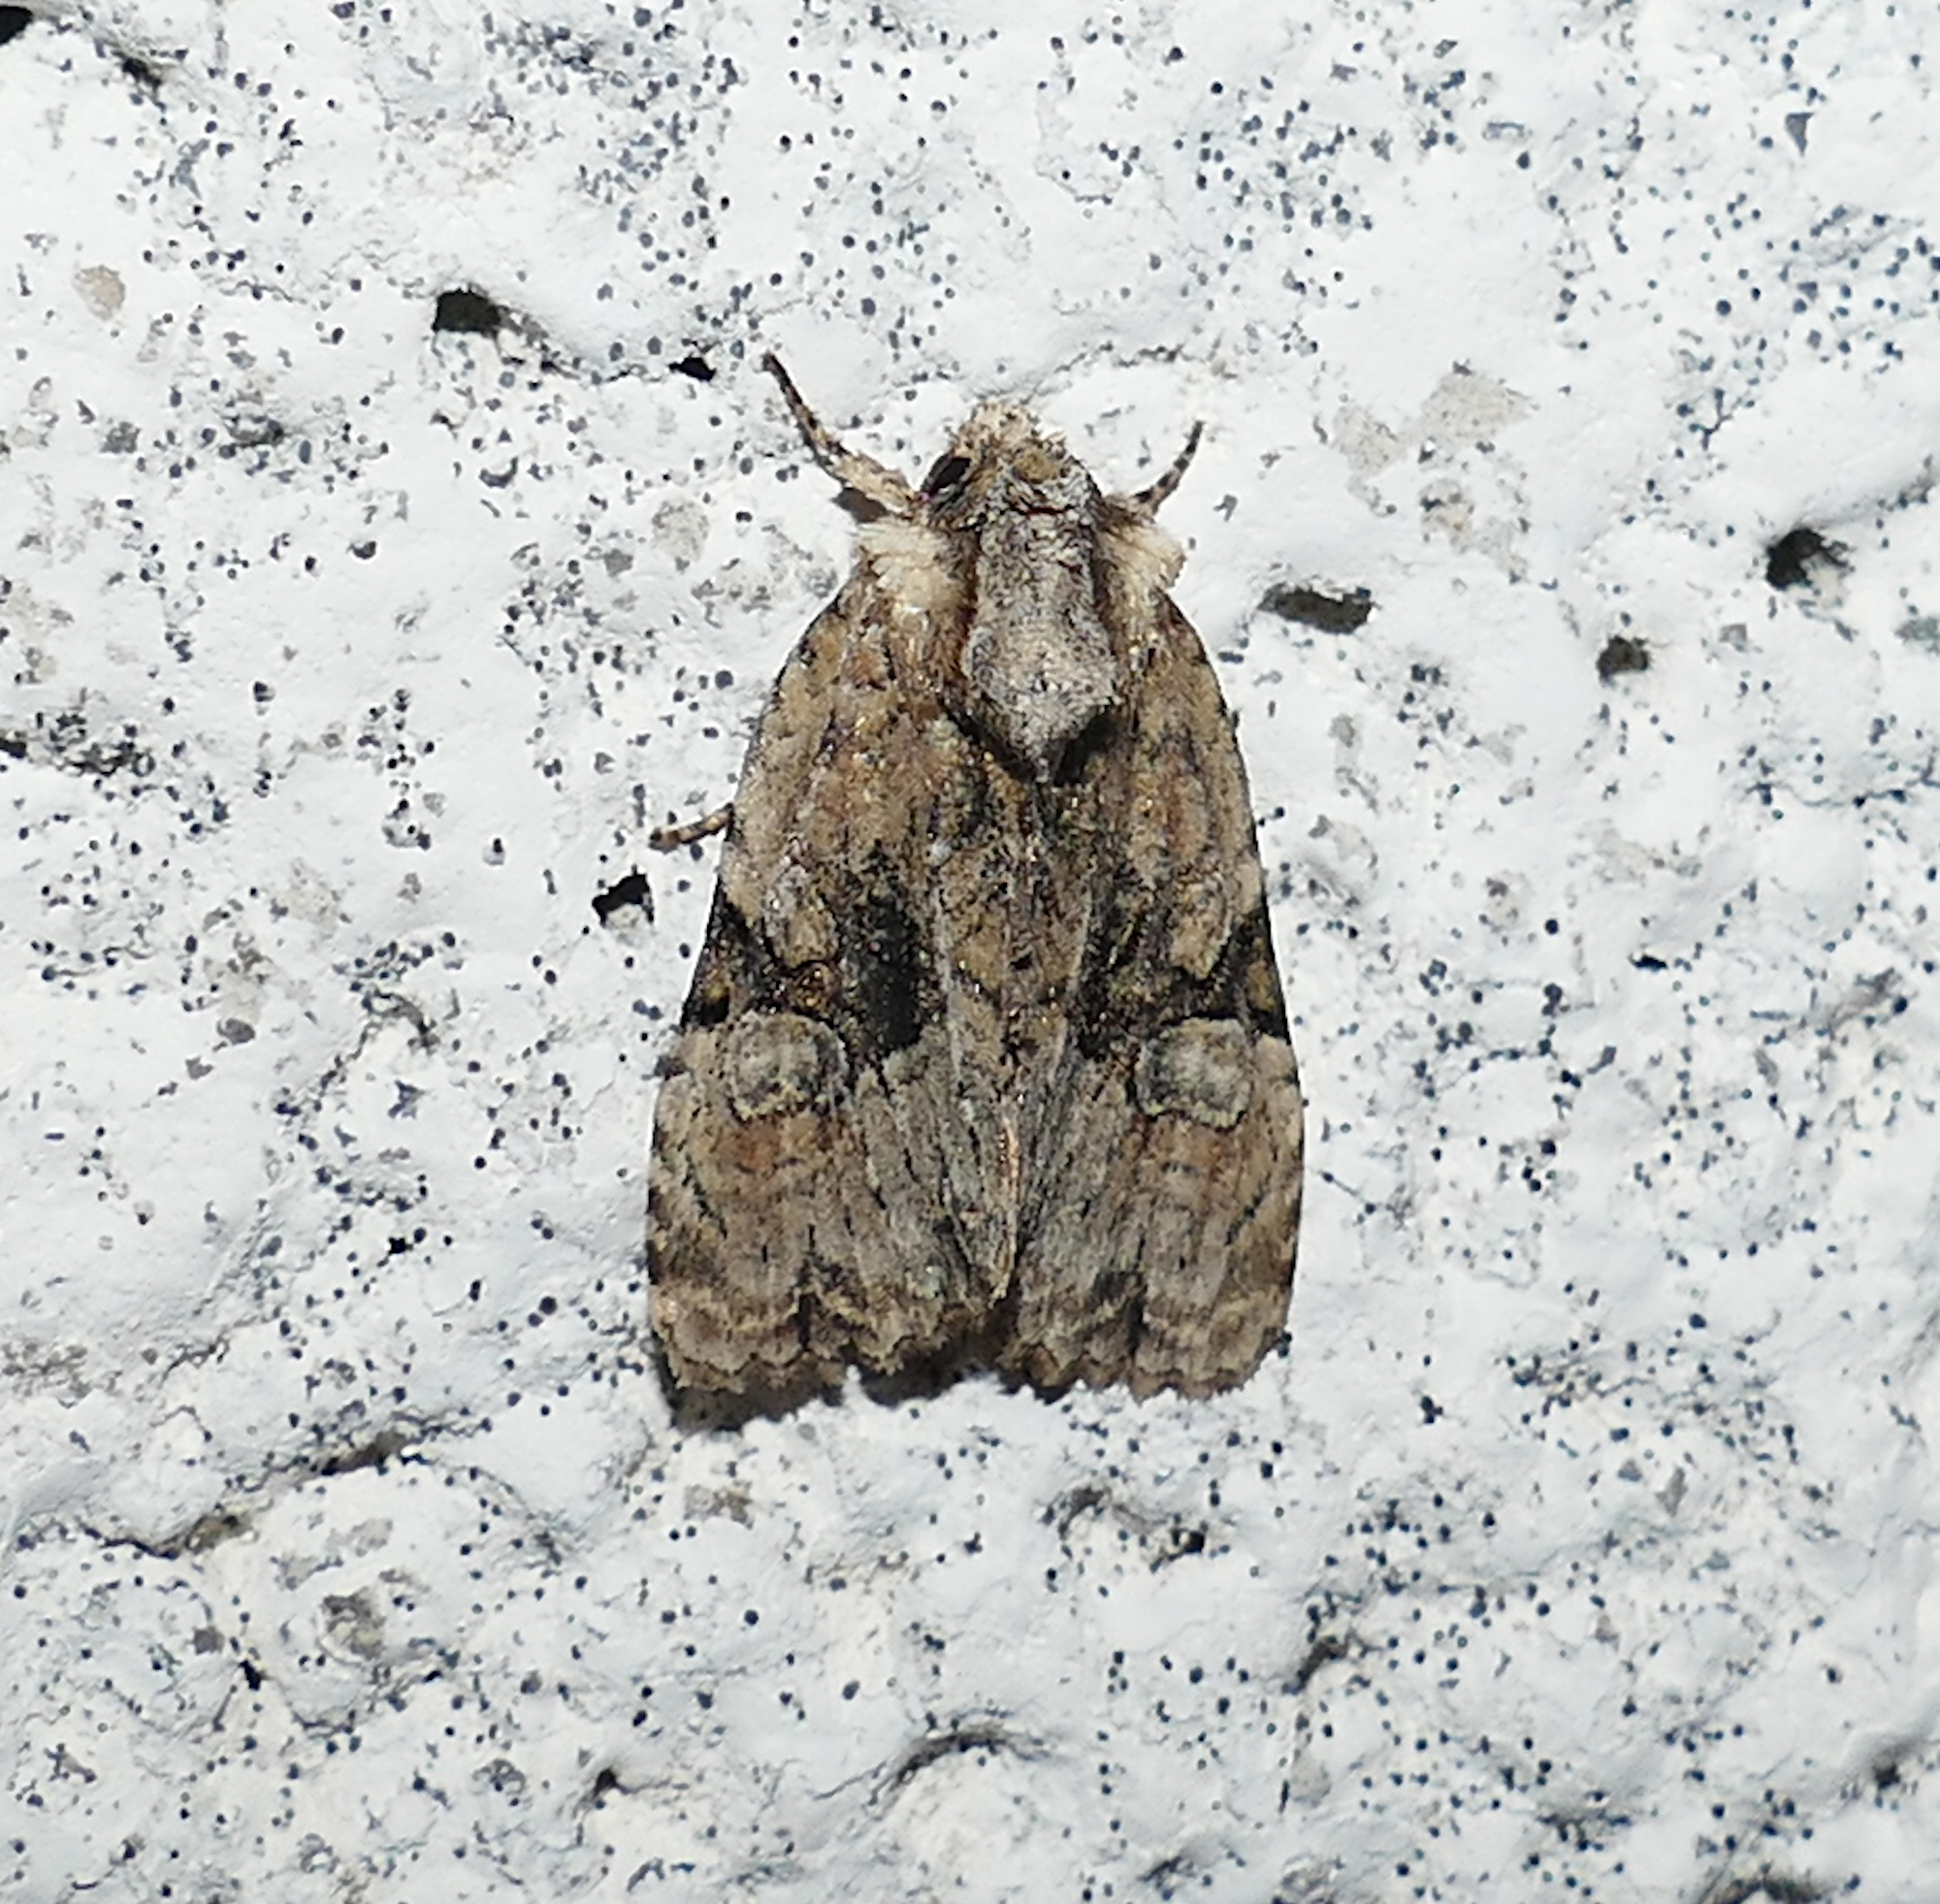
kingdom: Animalia
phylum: Arthropoda
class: Insecta
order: Lepidoptera
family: Noctuidae
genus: Oligia
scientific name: Oligia modica
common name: Black-banded brocade
